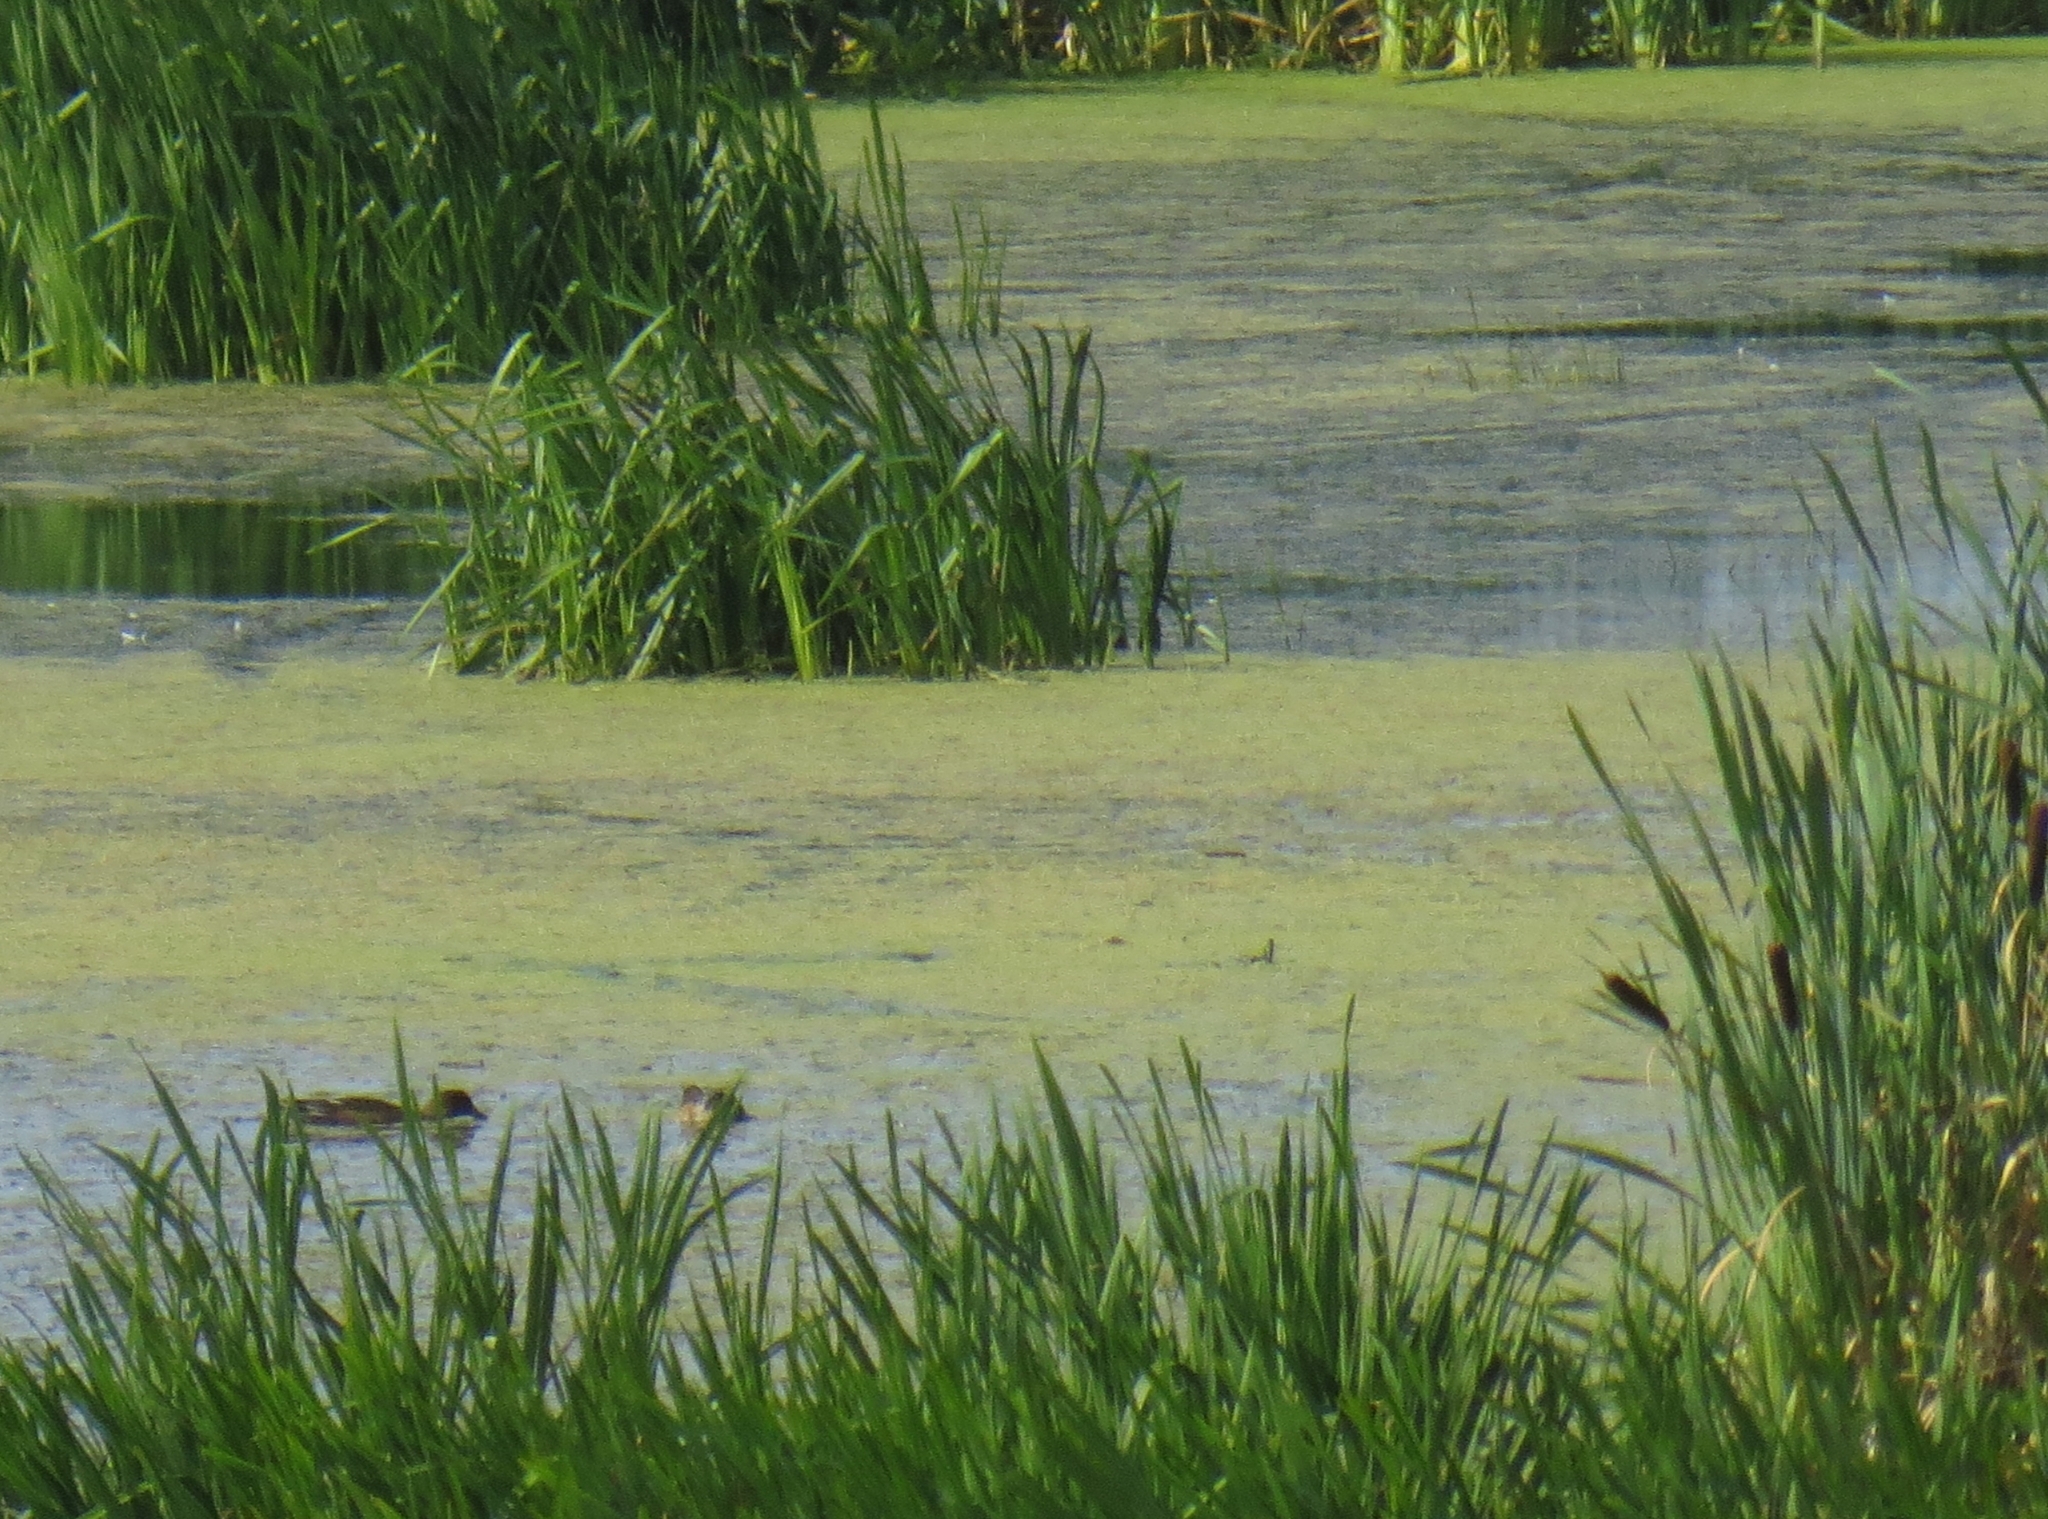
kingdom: Animalia
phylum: Chordata
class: Aves
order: Anseriformes
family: Anatidae
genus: Mareca
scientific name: Mareca penelope
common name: Eurasian wigeon
